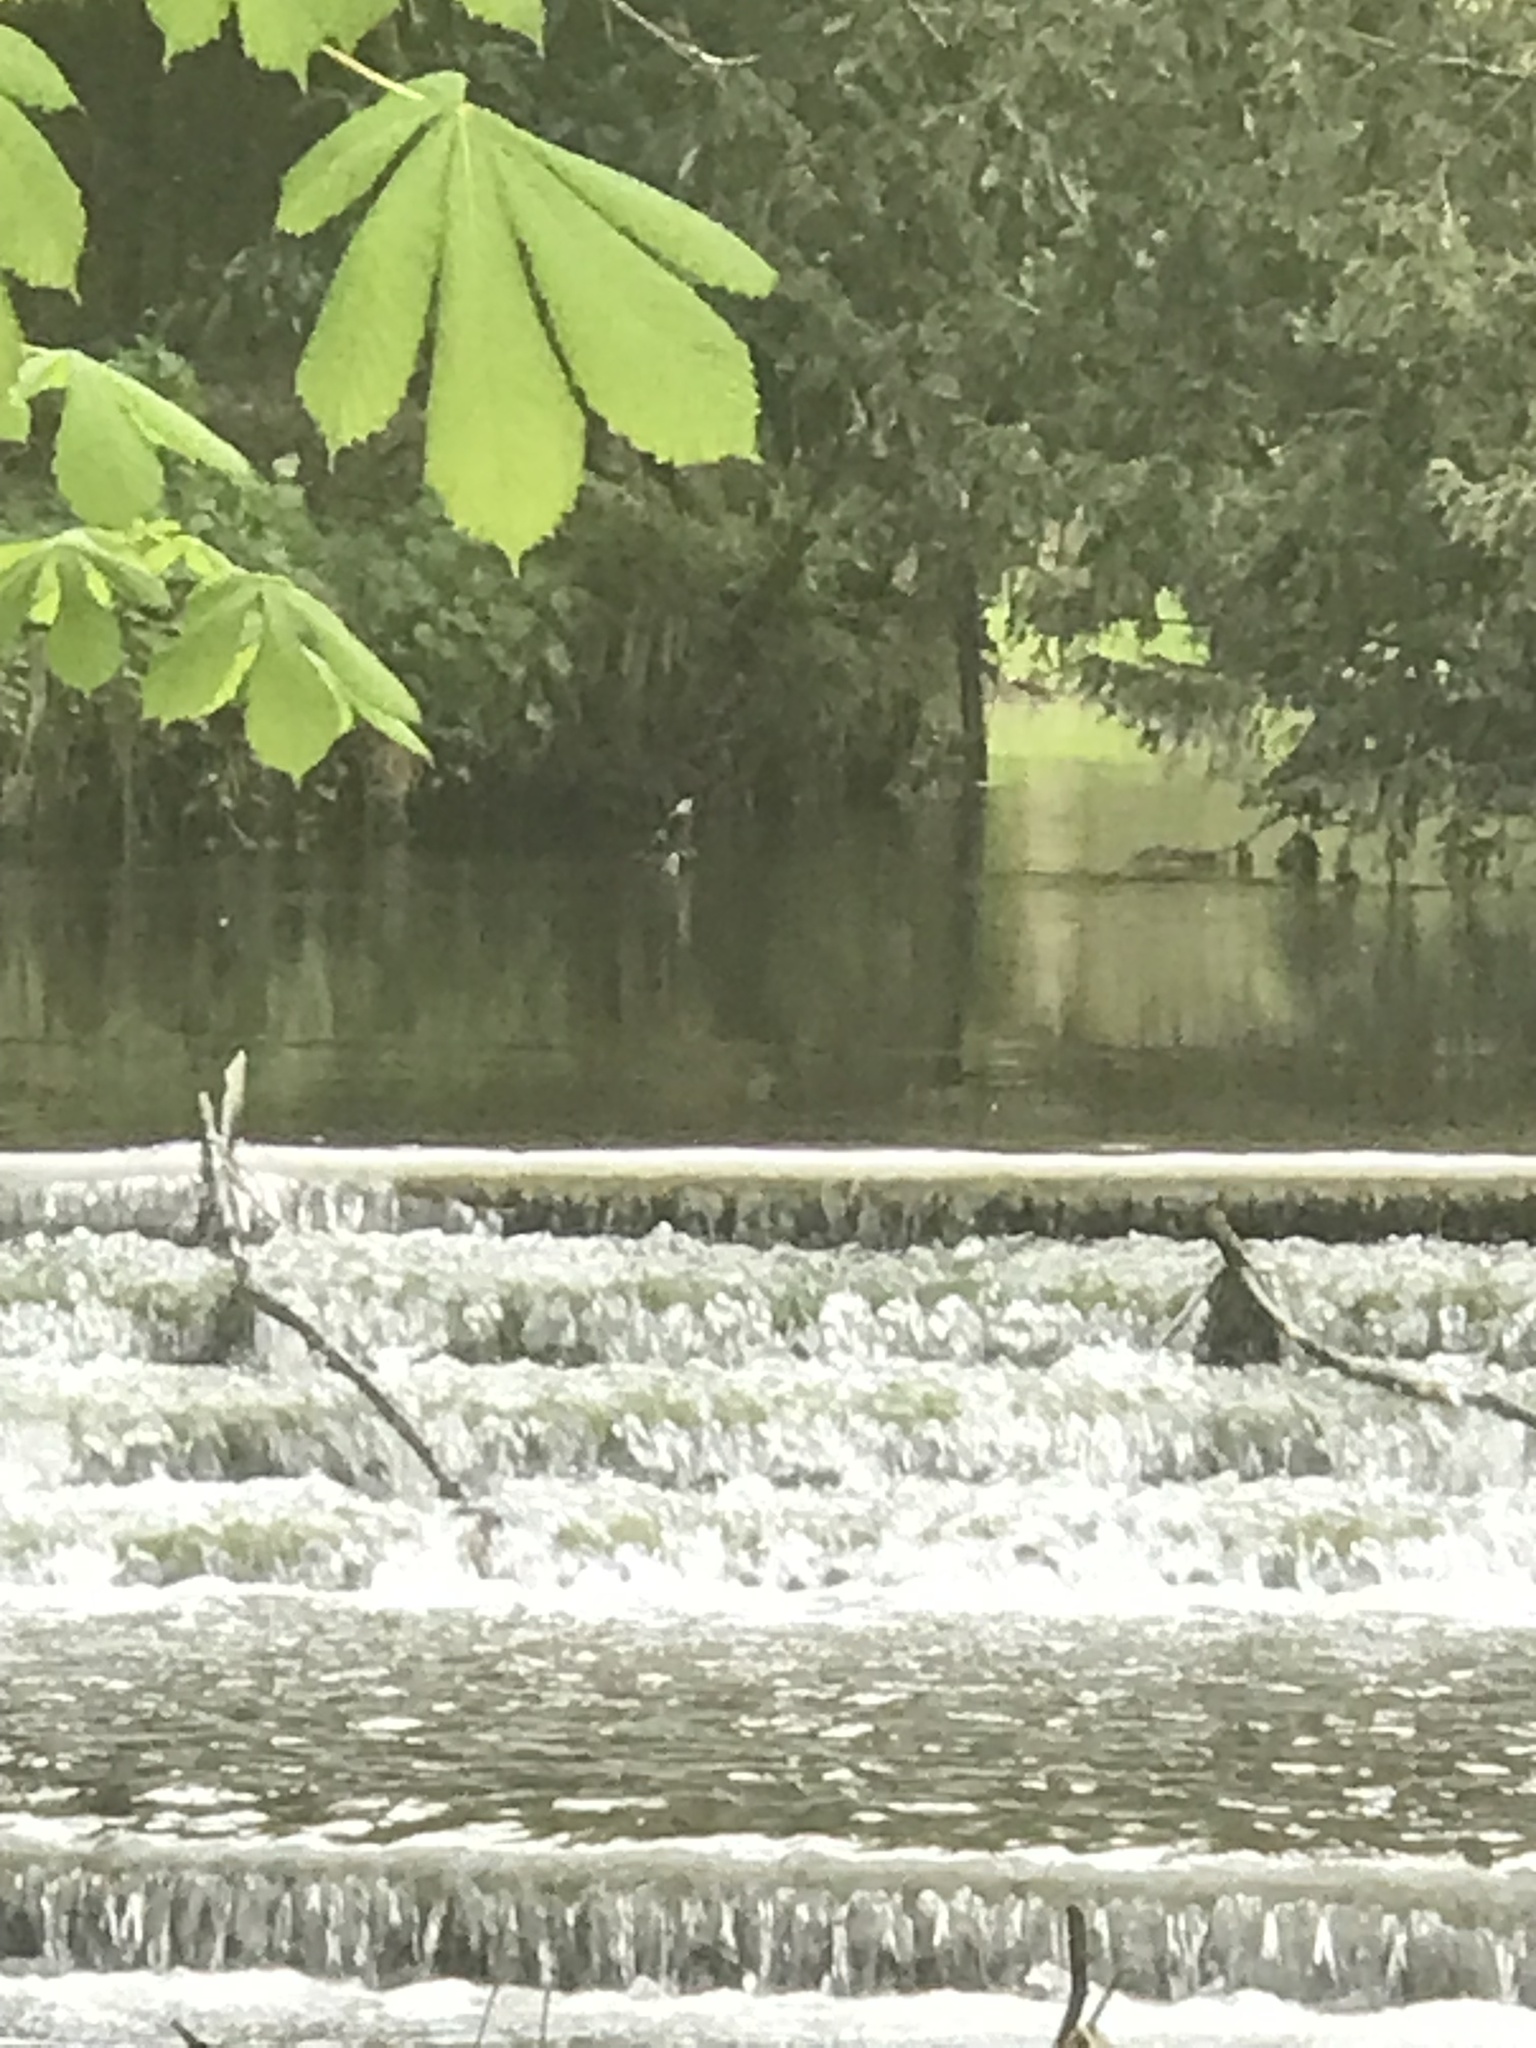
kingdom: Animalia
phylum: Chordata
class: Aves
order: Anseriformes
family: Anatidae
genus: Aix
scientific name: Aix galericulata
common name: Mandarin duck
